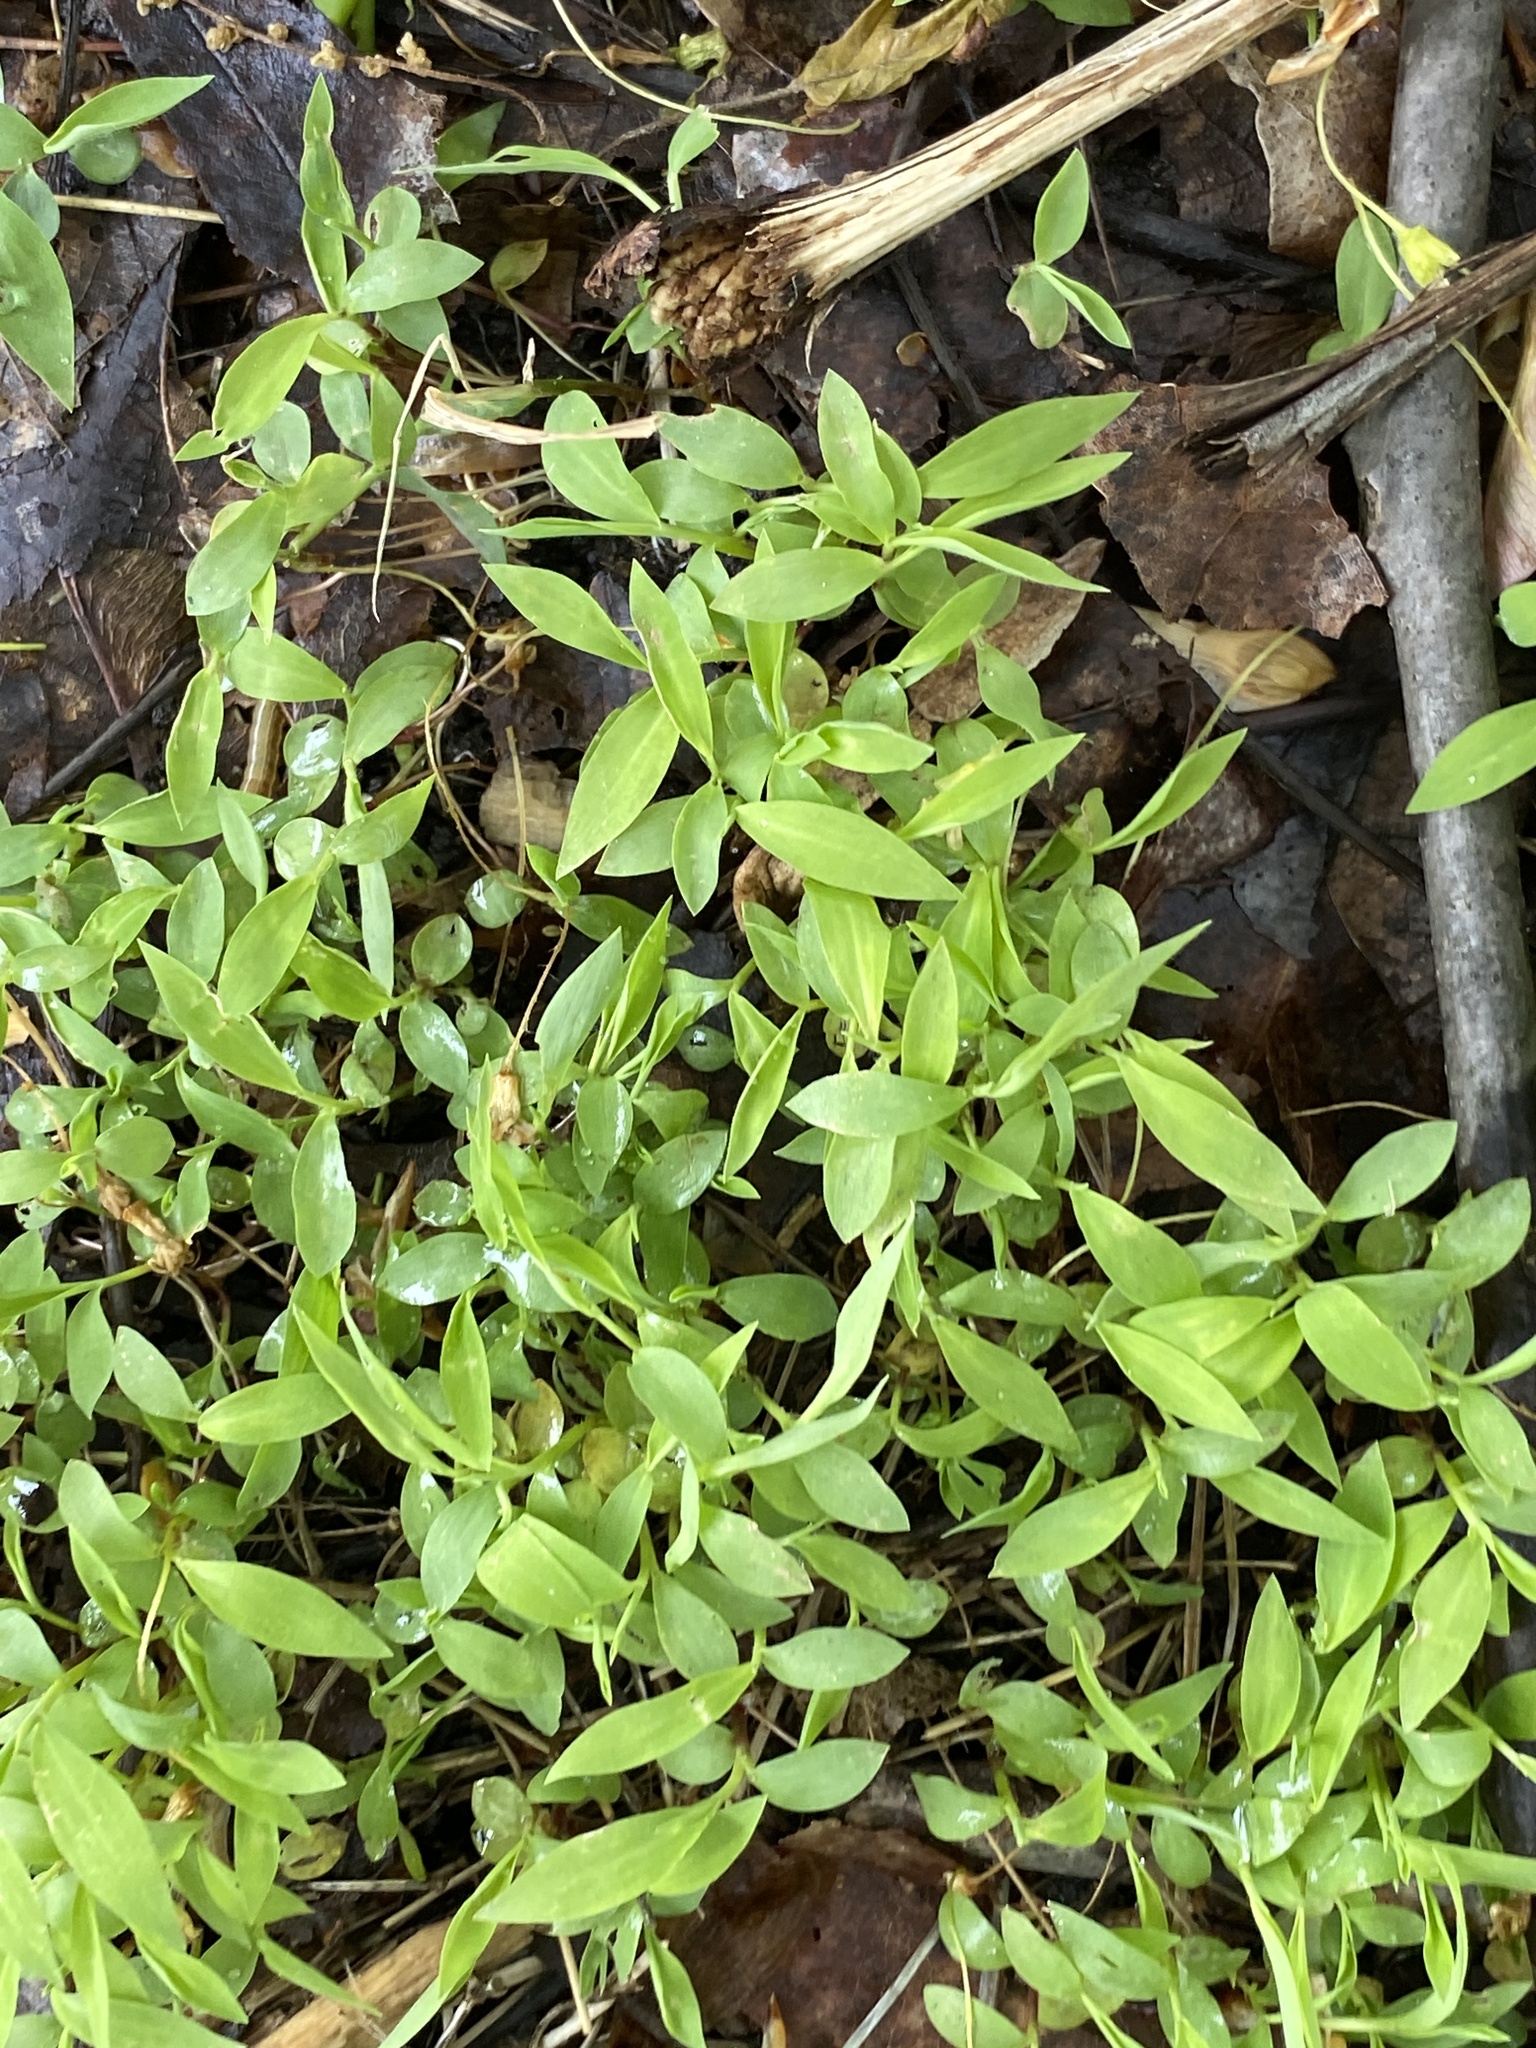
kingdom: Plantae
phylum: Tracheophyta
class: Liliopsida
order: Poales
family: Poaceae
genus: Microstegium
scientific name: Microstegium vimineum
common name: Japanese stiltgrass
